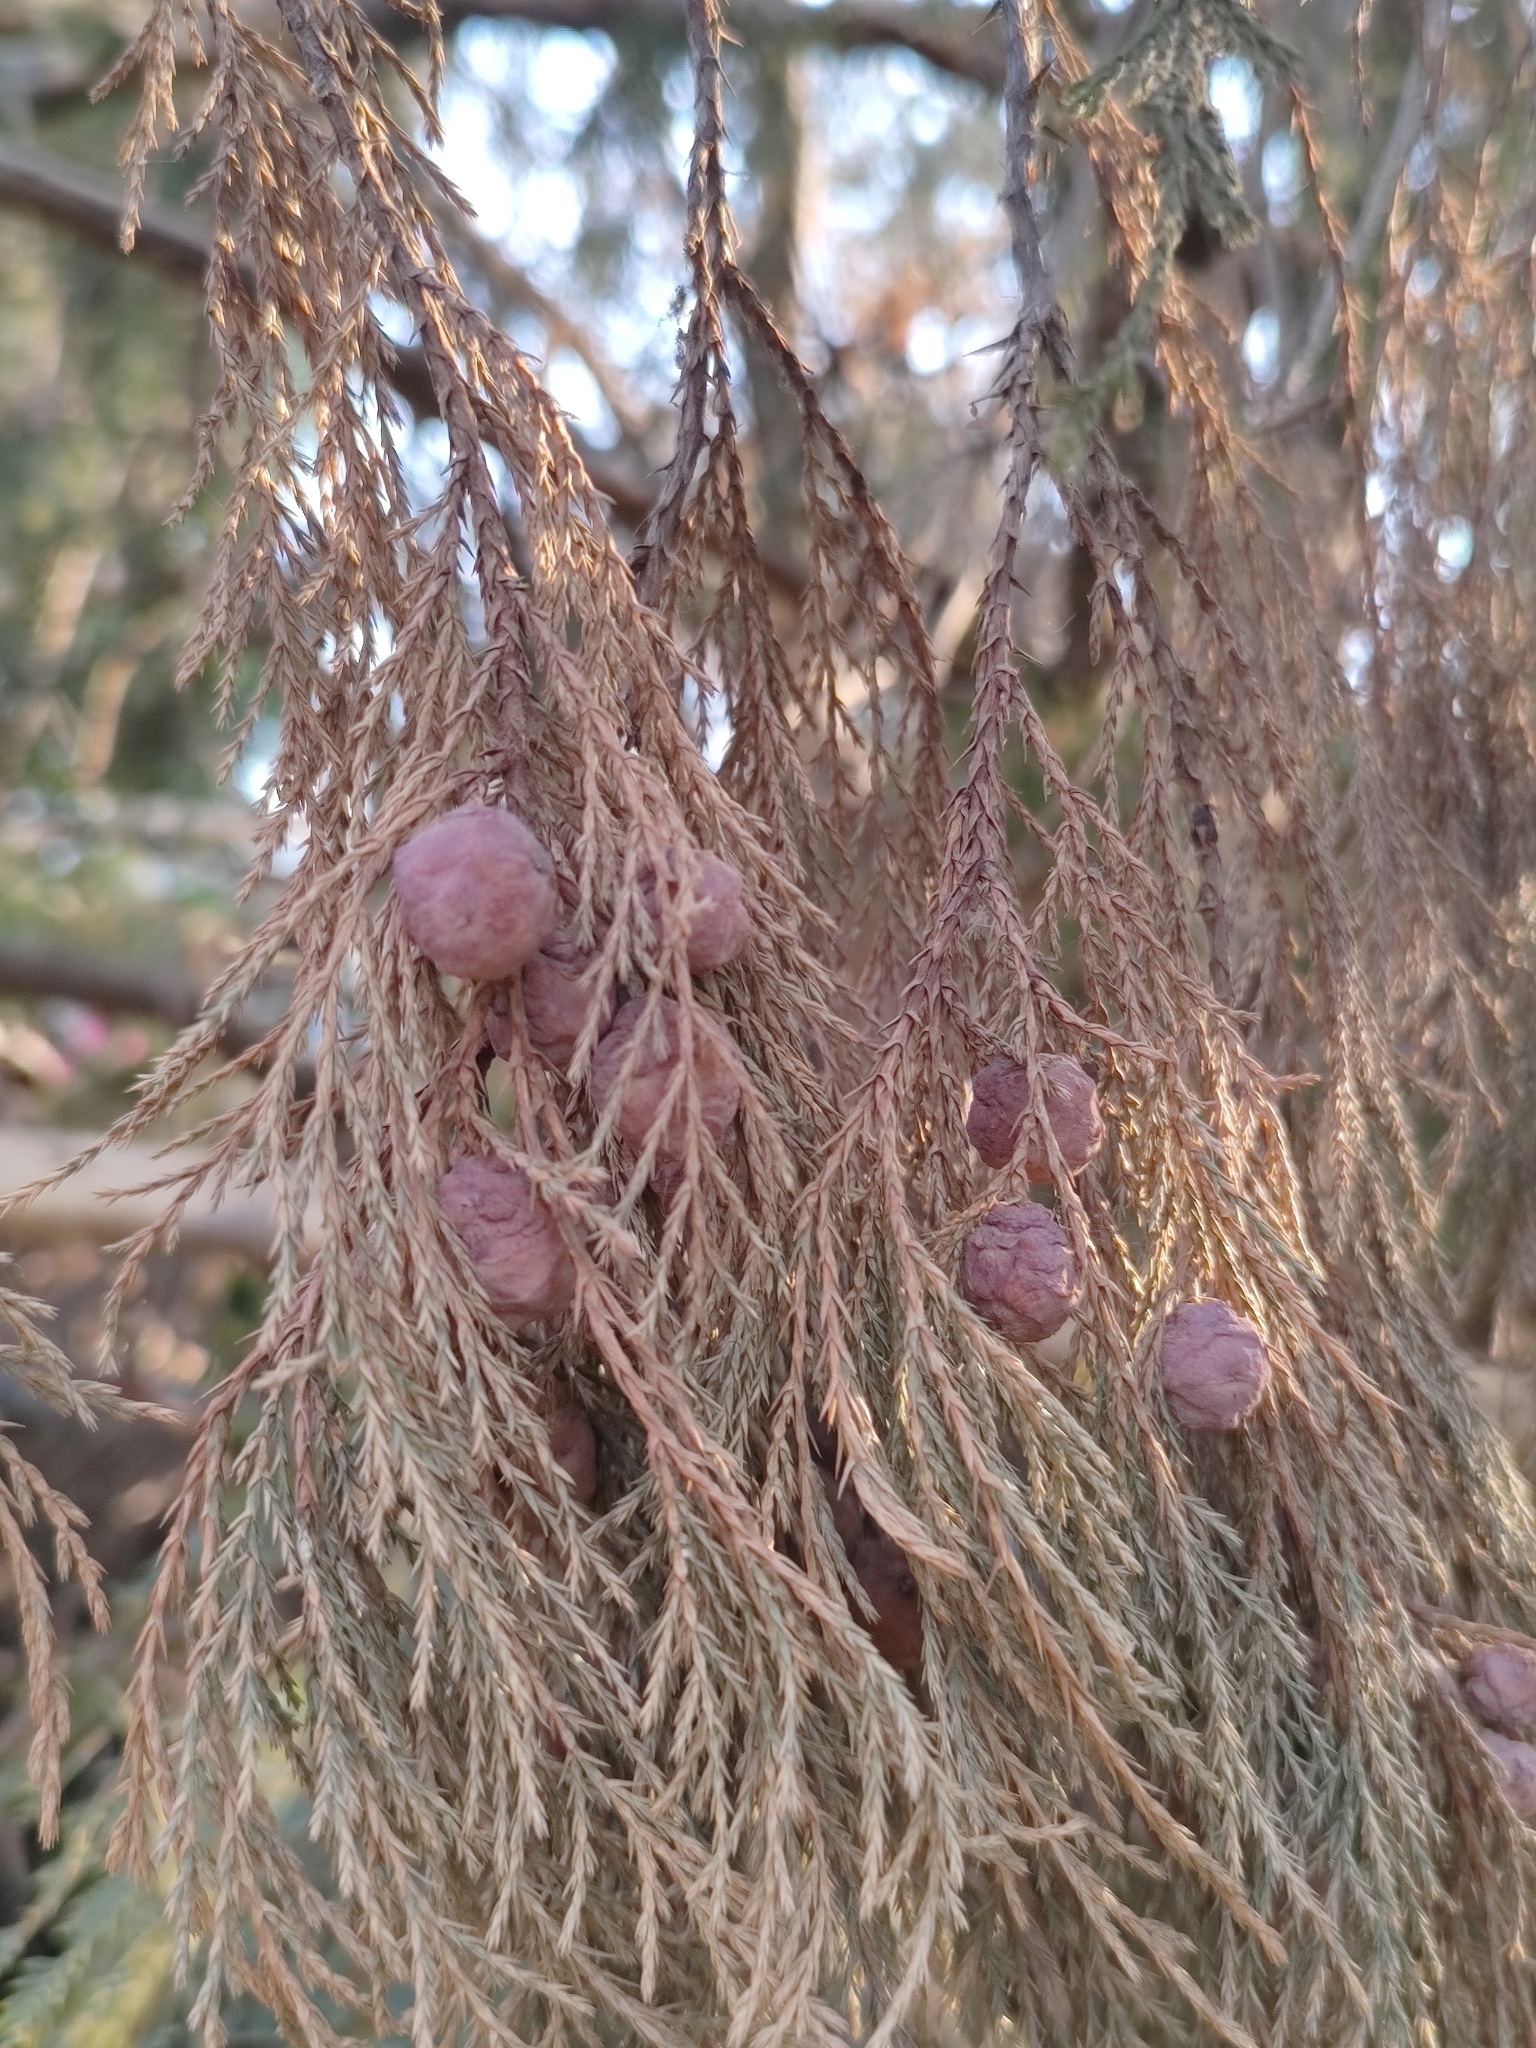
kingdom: Plantae
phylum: Tracheophyta
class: Pinopsida
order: Pinales
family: Cupressaceae
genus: Juniperus
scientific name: Juniperus flaccida
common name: Drooping juniper
